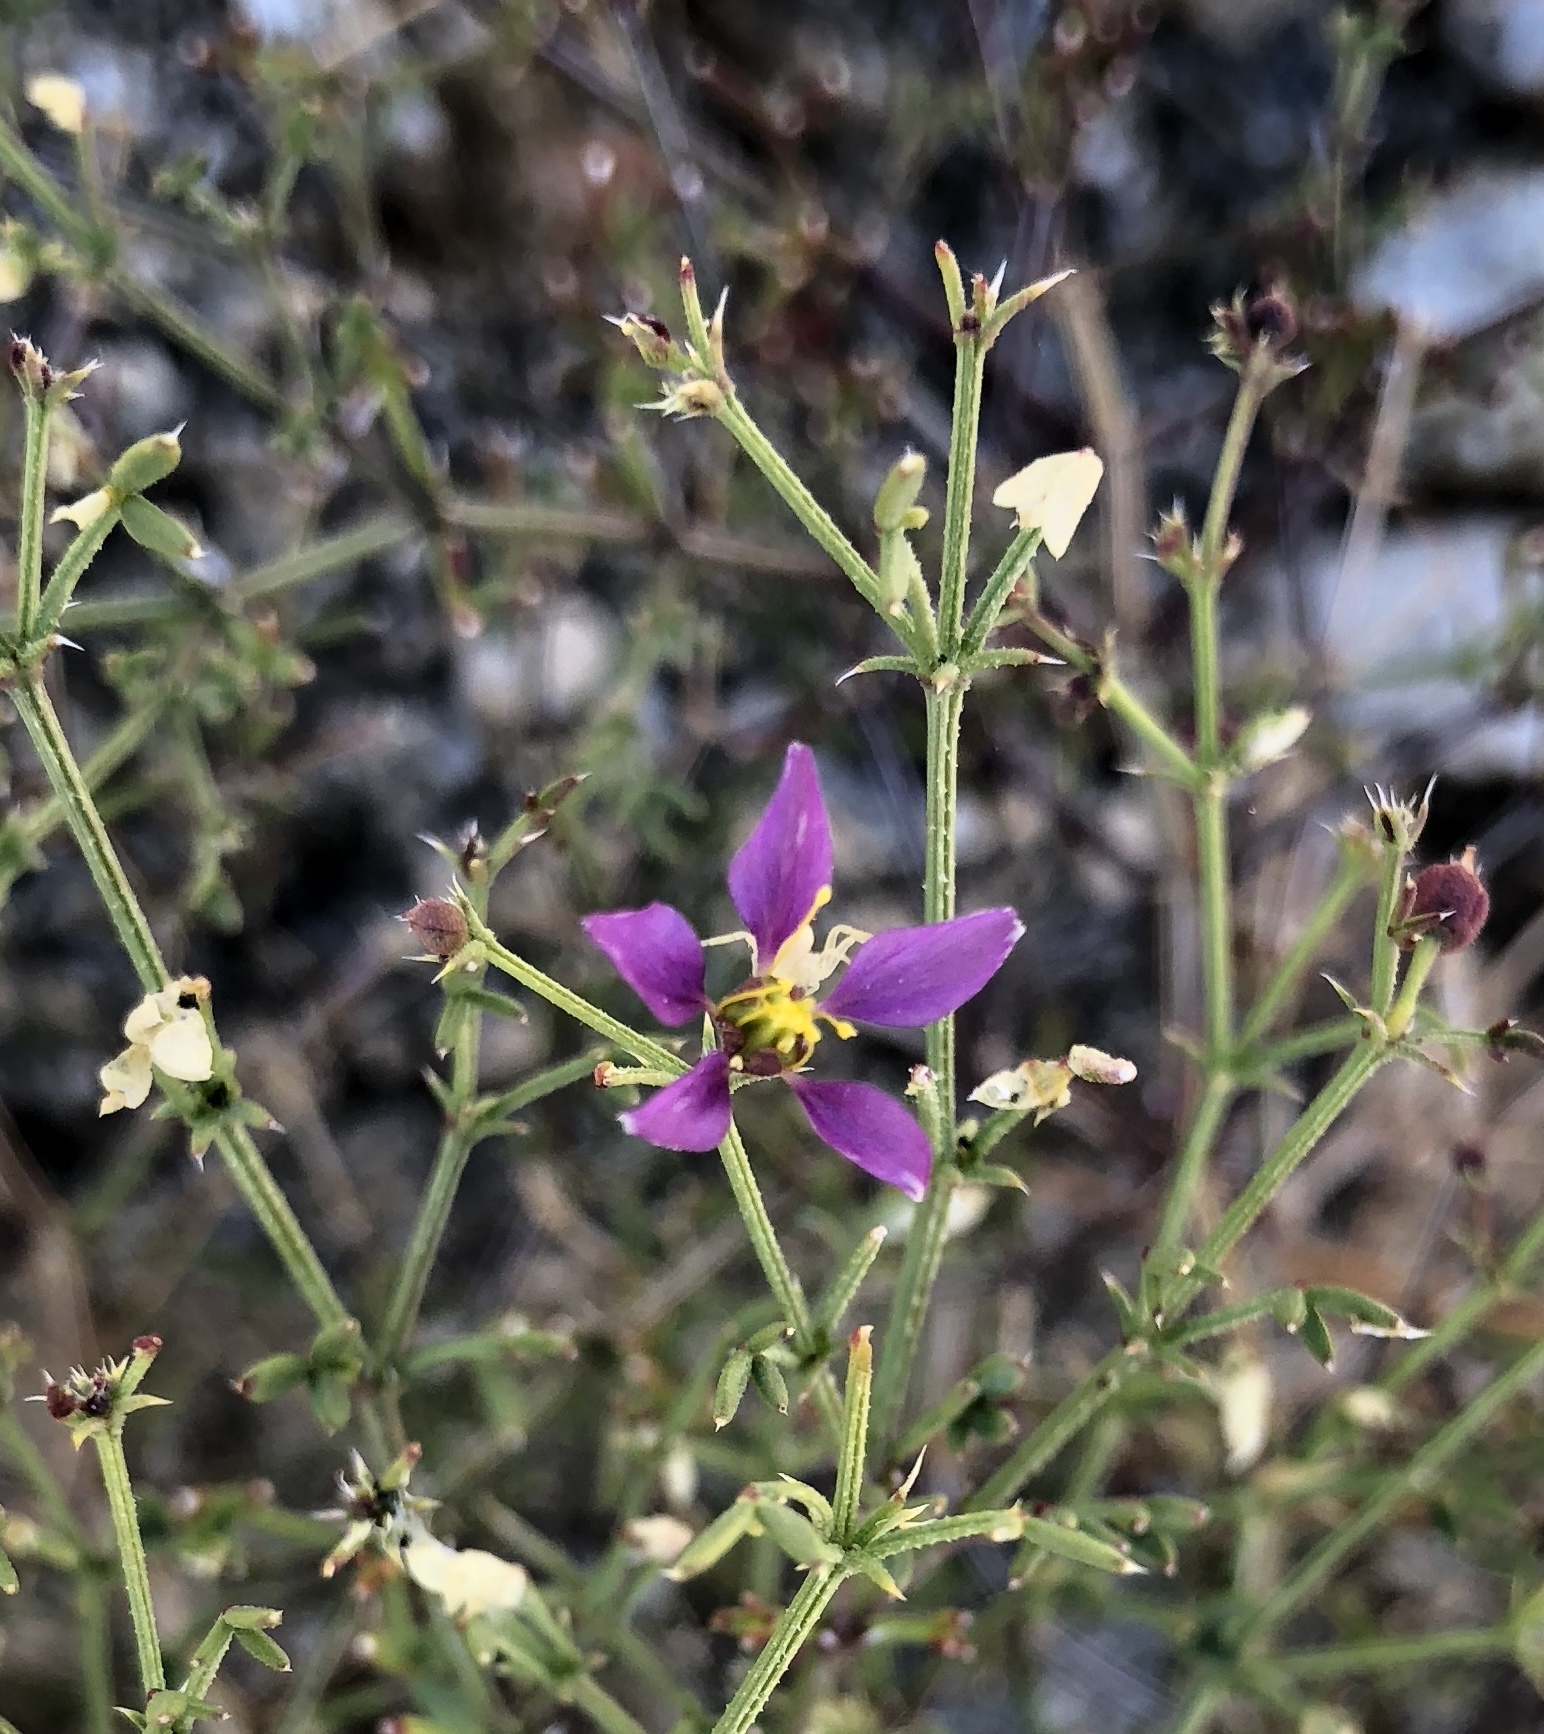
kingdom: Plantae
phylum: Tracheophyta
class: Magnoliopsida
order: Zygophyllales
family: Zygophyllaceae
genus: Fagonia
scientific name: Fagonia laevis
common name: California fagonbush
